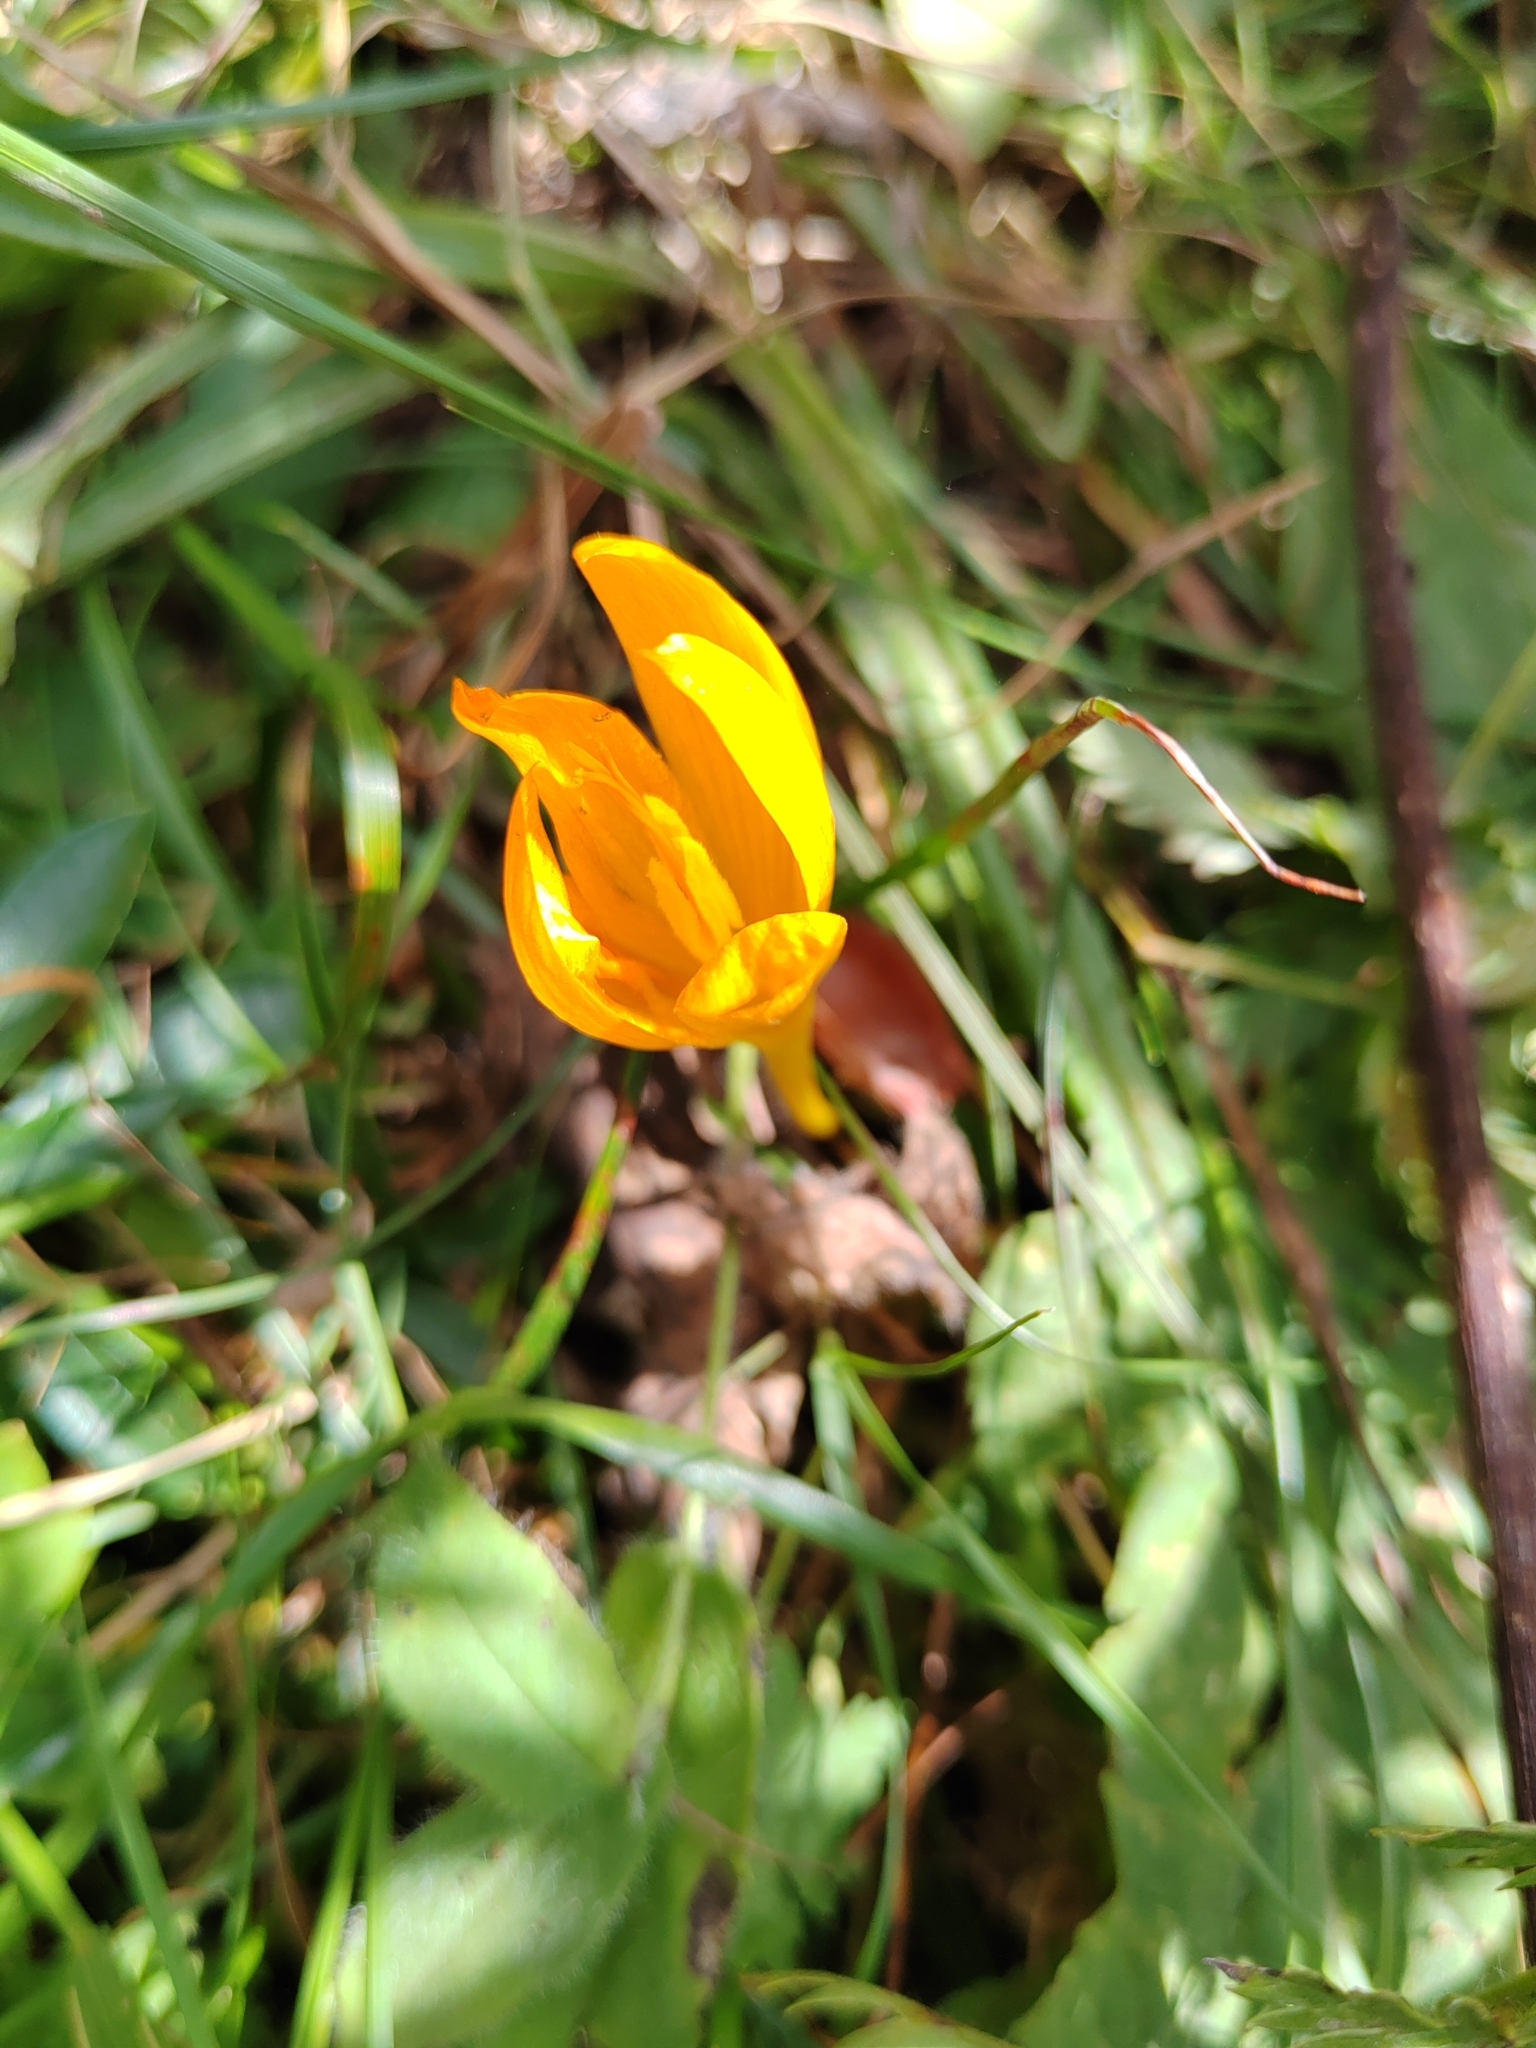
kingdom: Plantae
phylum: Tracheophyta
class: Liliopsida
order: Asparagales
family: Iridaceae
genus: Crocus
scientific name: Crocus scharojanii
